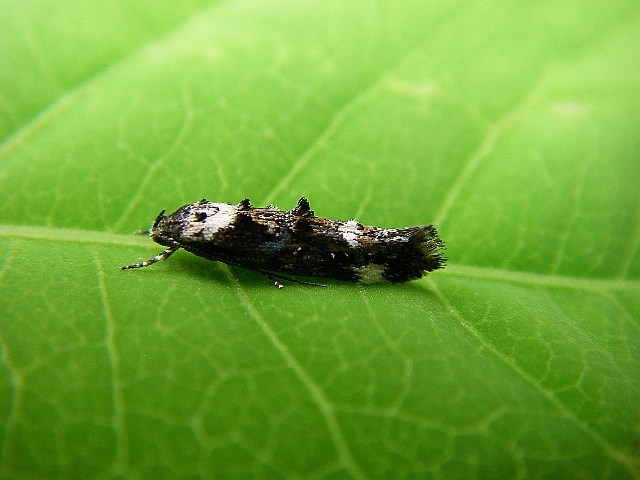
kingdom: Animalia
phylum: Arthropoda
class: Insecta
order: Lepidoptera
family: Momphidae
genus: Mompha
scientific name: Mompha conturbatella
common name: Large dark mompha
